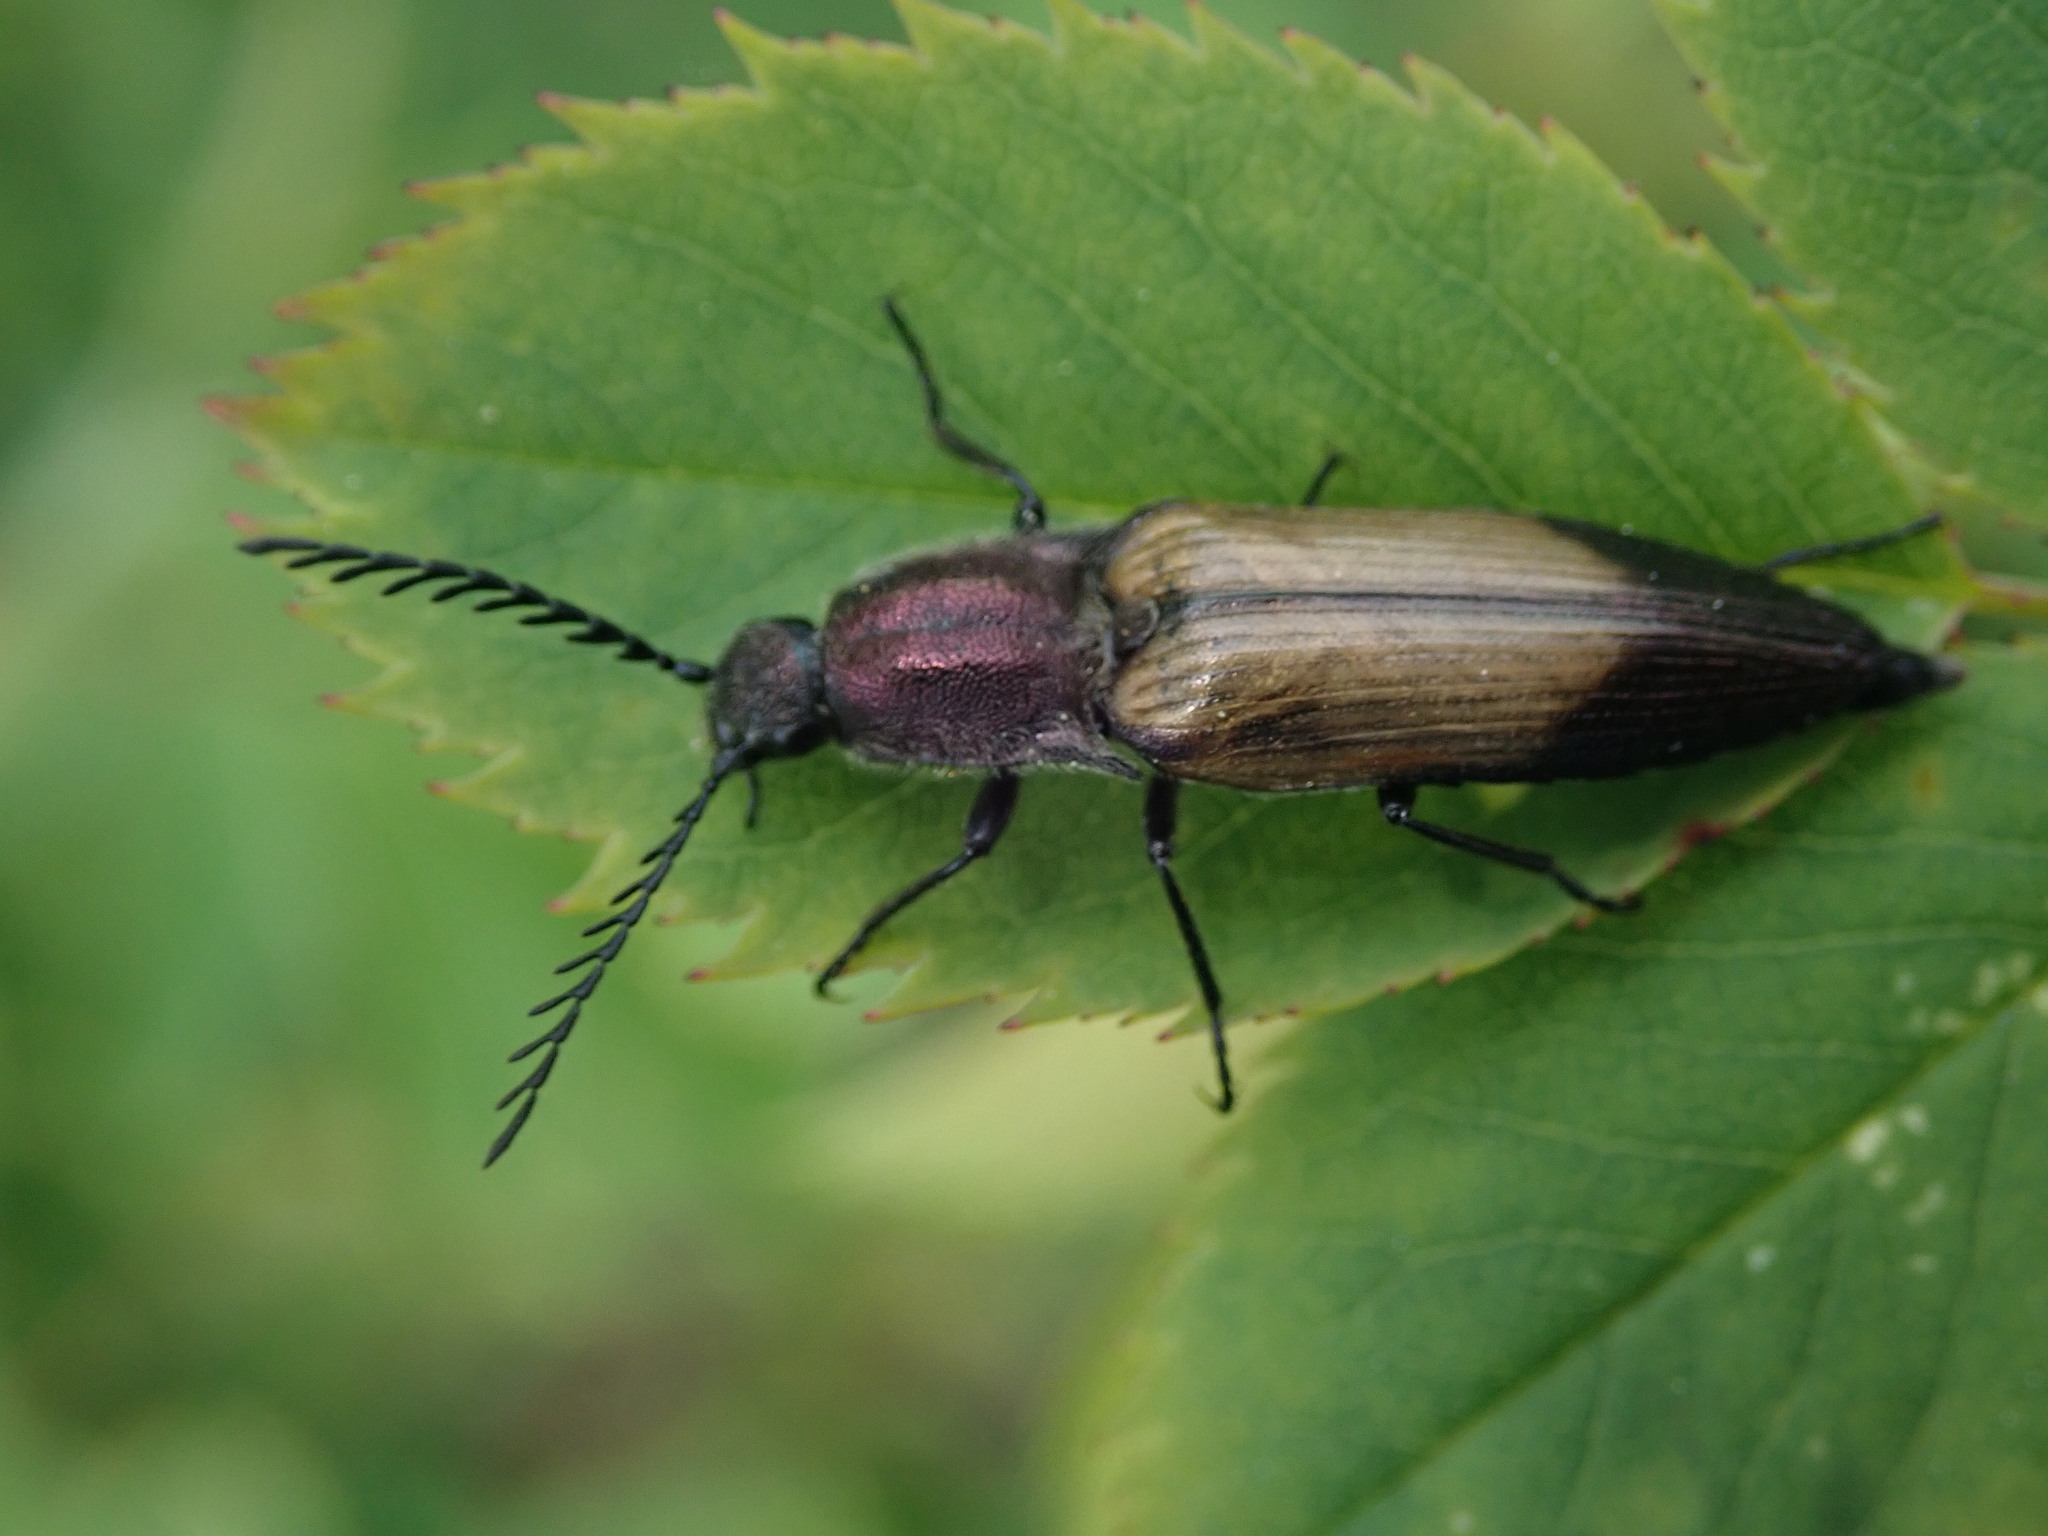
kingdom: Animalia
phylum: Arthropoda
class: Insecta
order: Coleoptera
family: Elateridae
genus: Ctenicera
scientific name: Ctenicera cuprea
